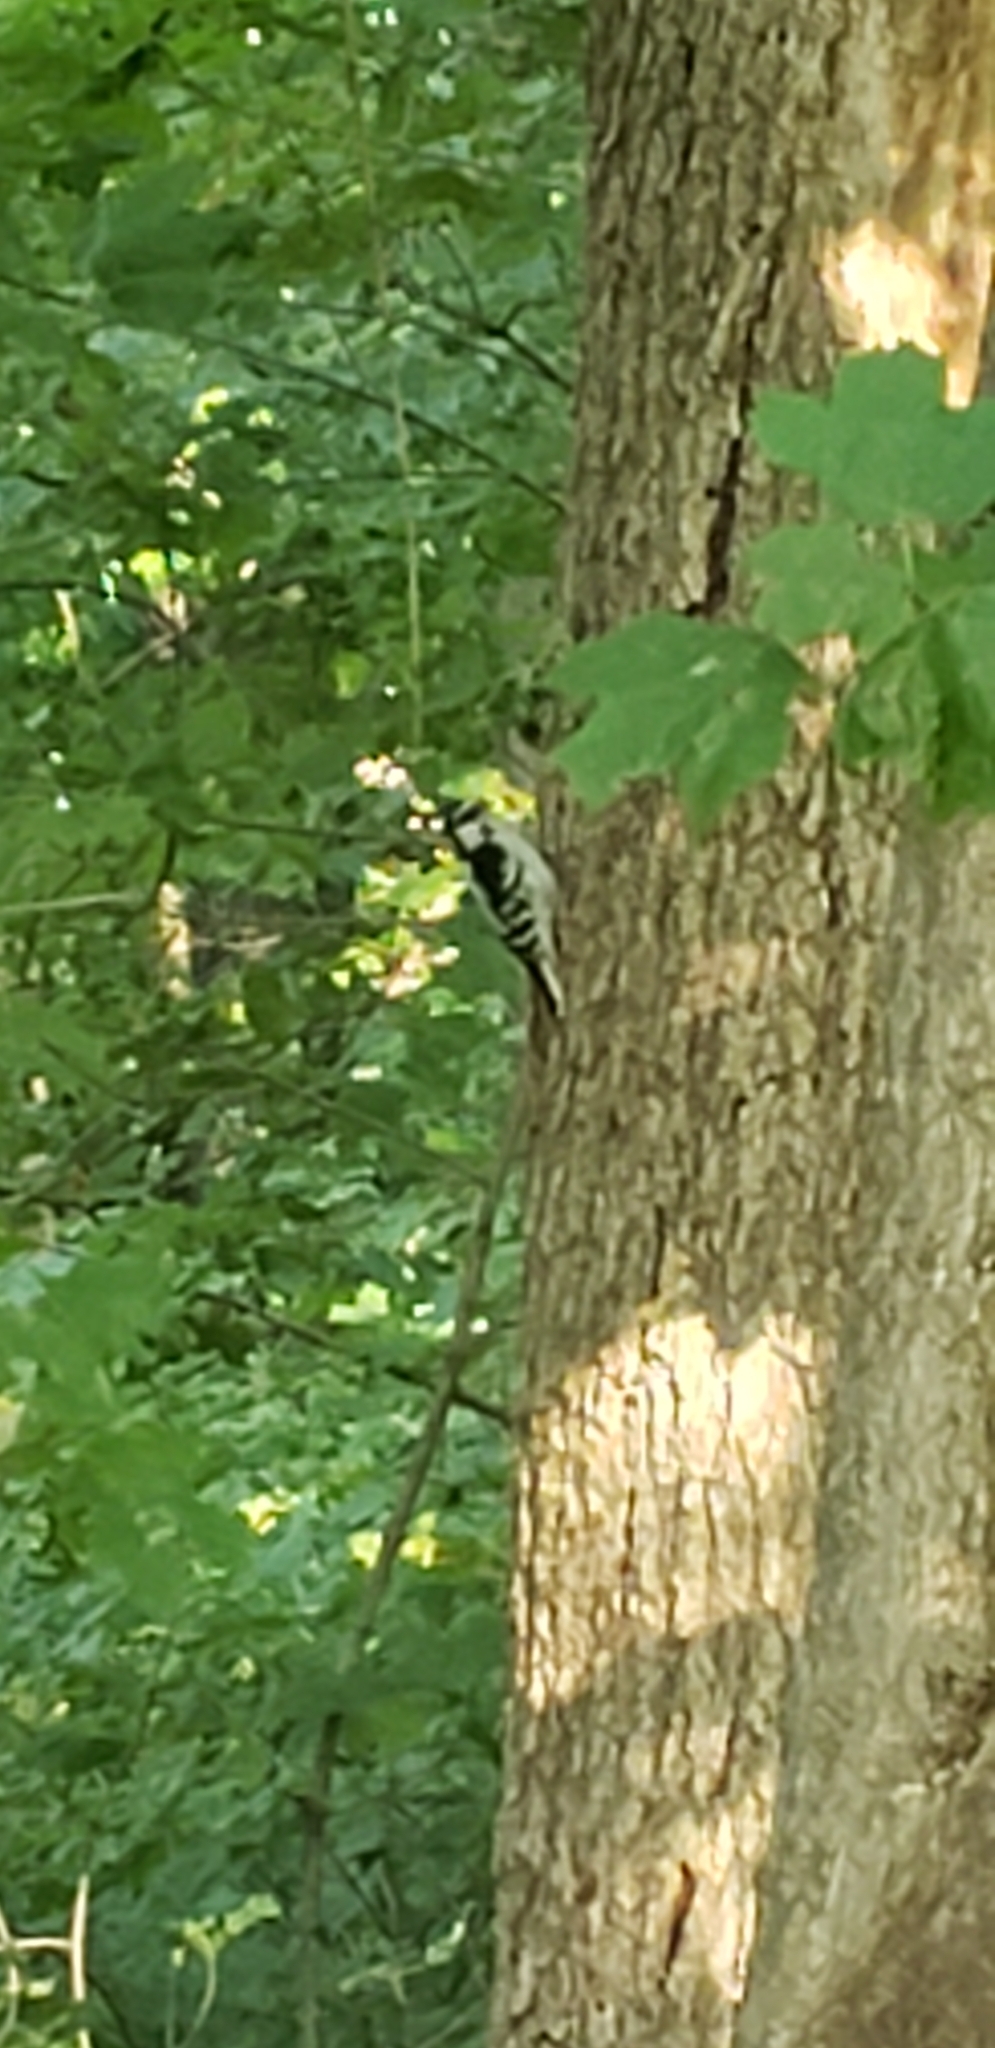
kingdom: Animalia
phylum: Chordata
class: Aves
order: Piciformes
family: Picidae
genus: Dryobates
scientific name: Dryobates pubescens
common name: Downy woodpecker
